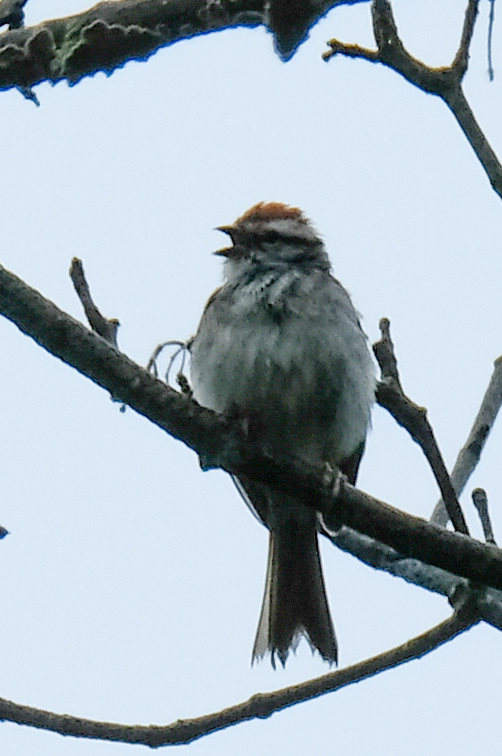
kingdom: Animalia
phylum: Chordata
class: Aves
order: Passeriformes
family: Passerellidae
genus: Spizella
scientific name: Spizella passerina
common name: Chipping sparrow
